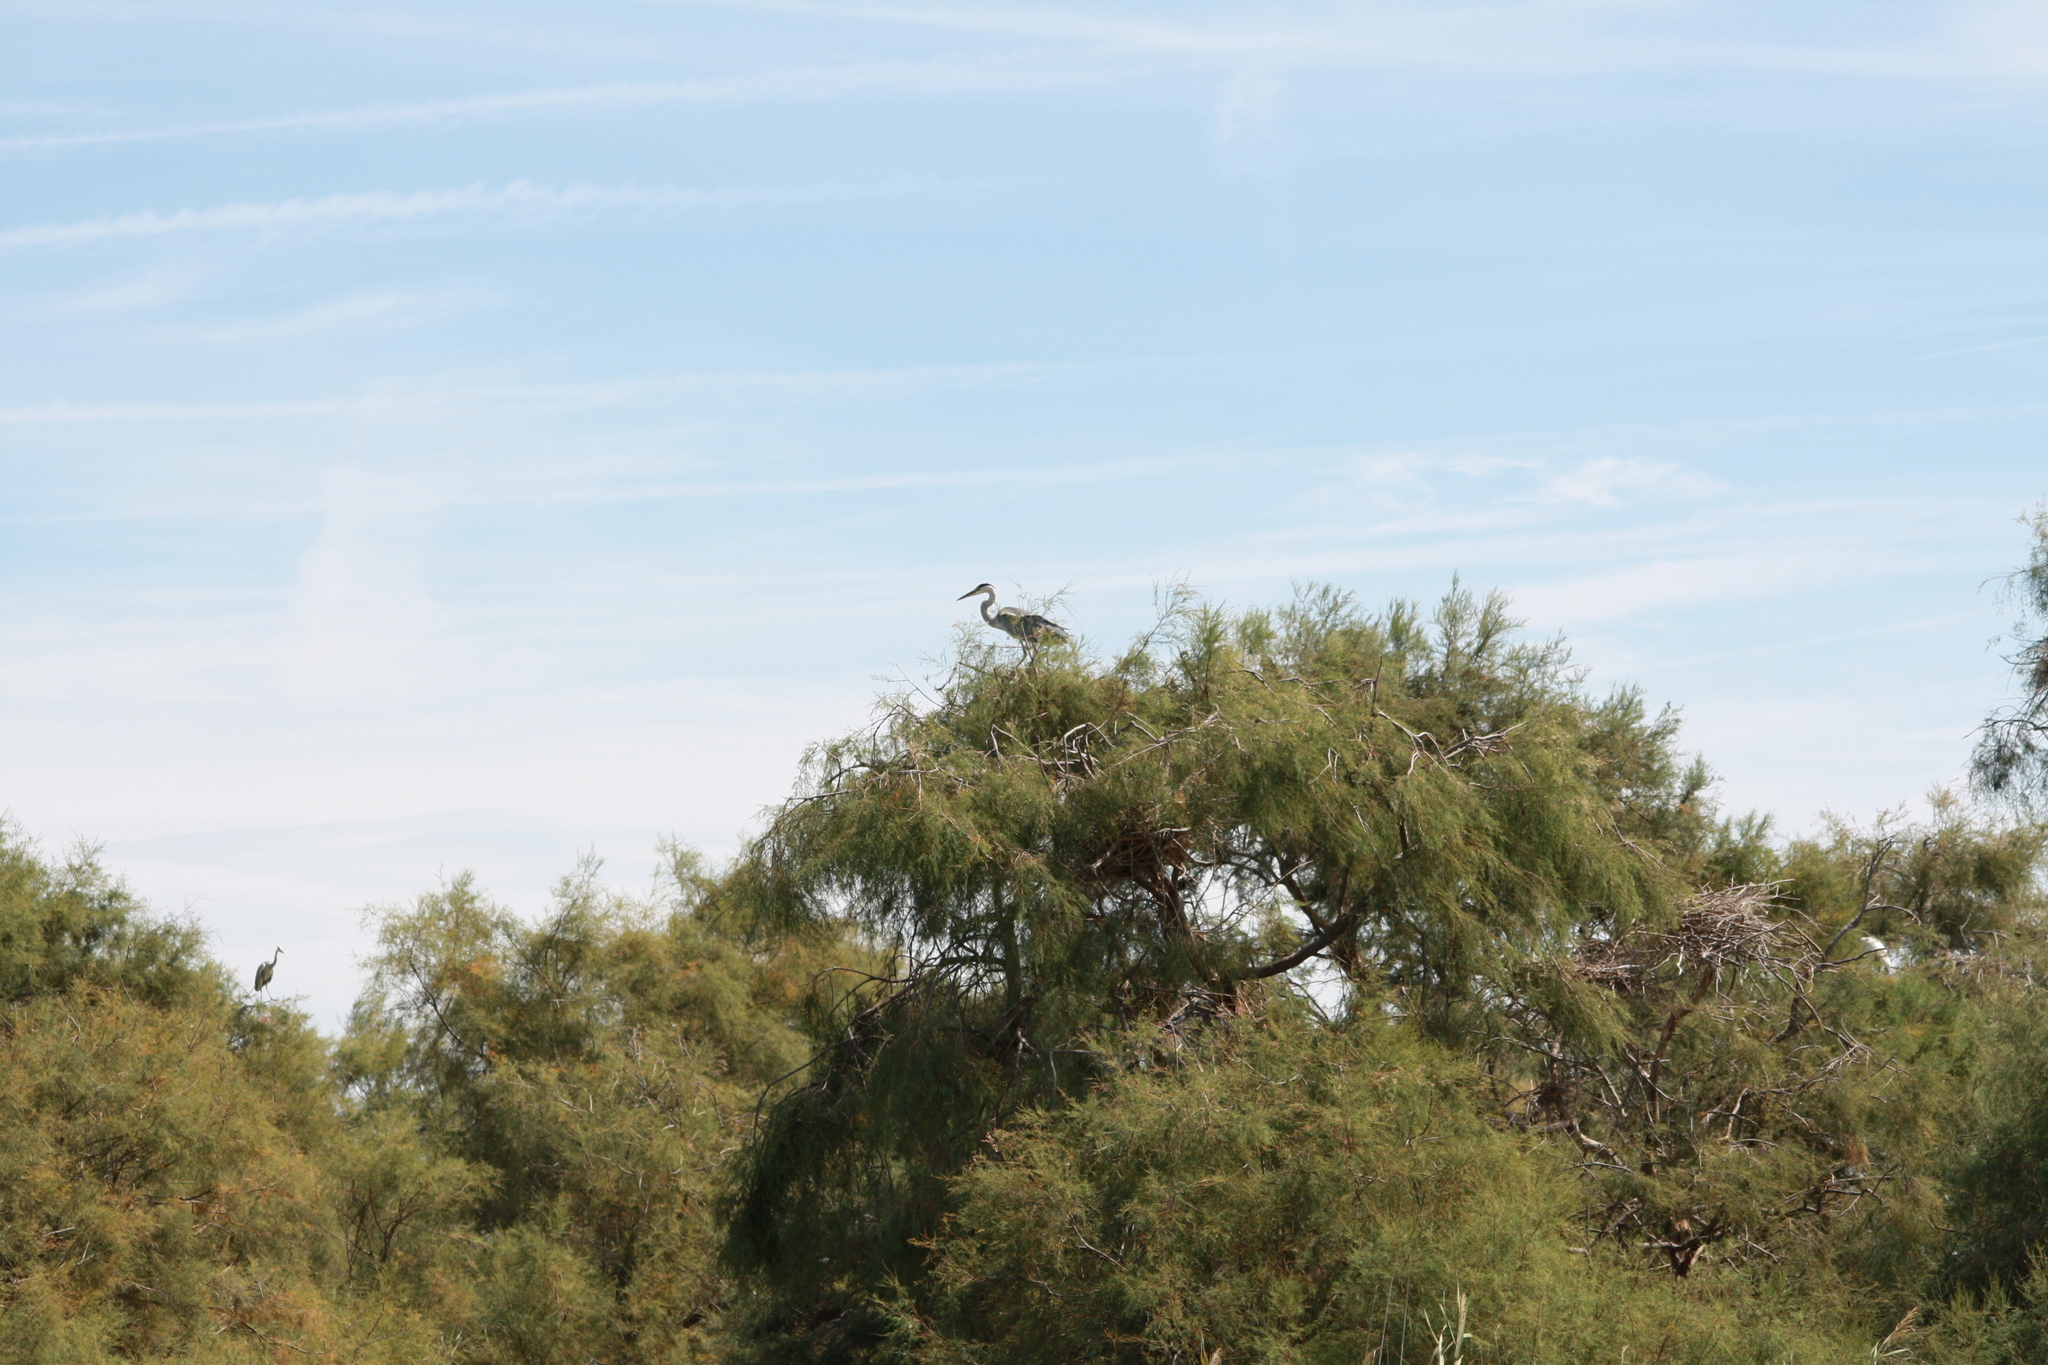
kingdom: Animalia
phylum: Chordata
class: Aves
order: Pelecaniformes
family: Ardeidae
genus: Ardea
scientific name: Ardea cinerea
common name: Grey heron
